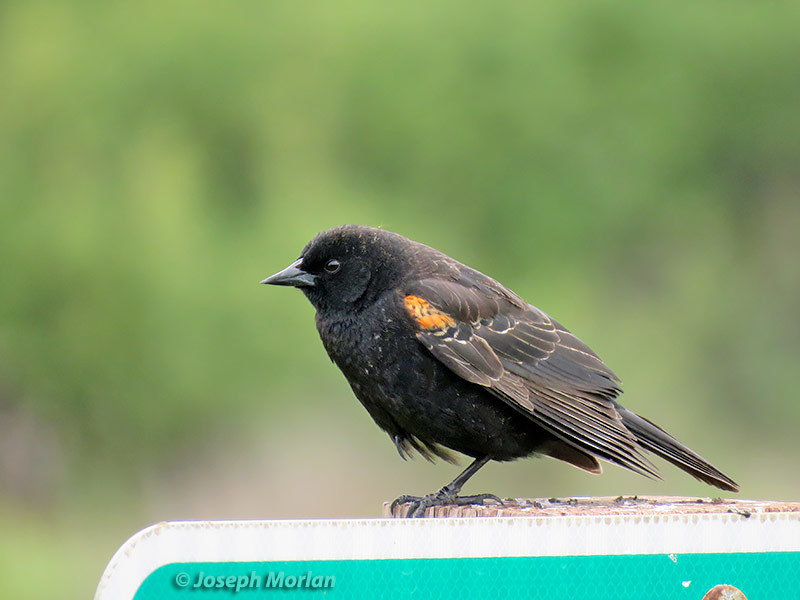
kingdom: Animalia
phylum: Chordata
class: Aves
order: Passeriformes
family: Icteridae
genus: Agelaius
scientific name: Agelaius phoeniceus
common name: Red-winged blackbird
